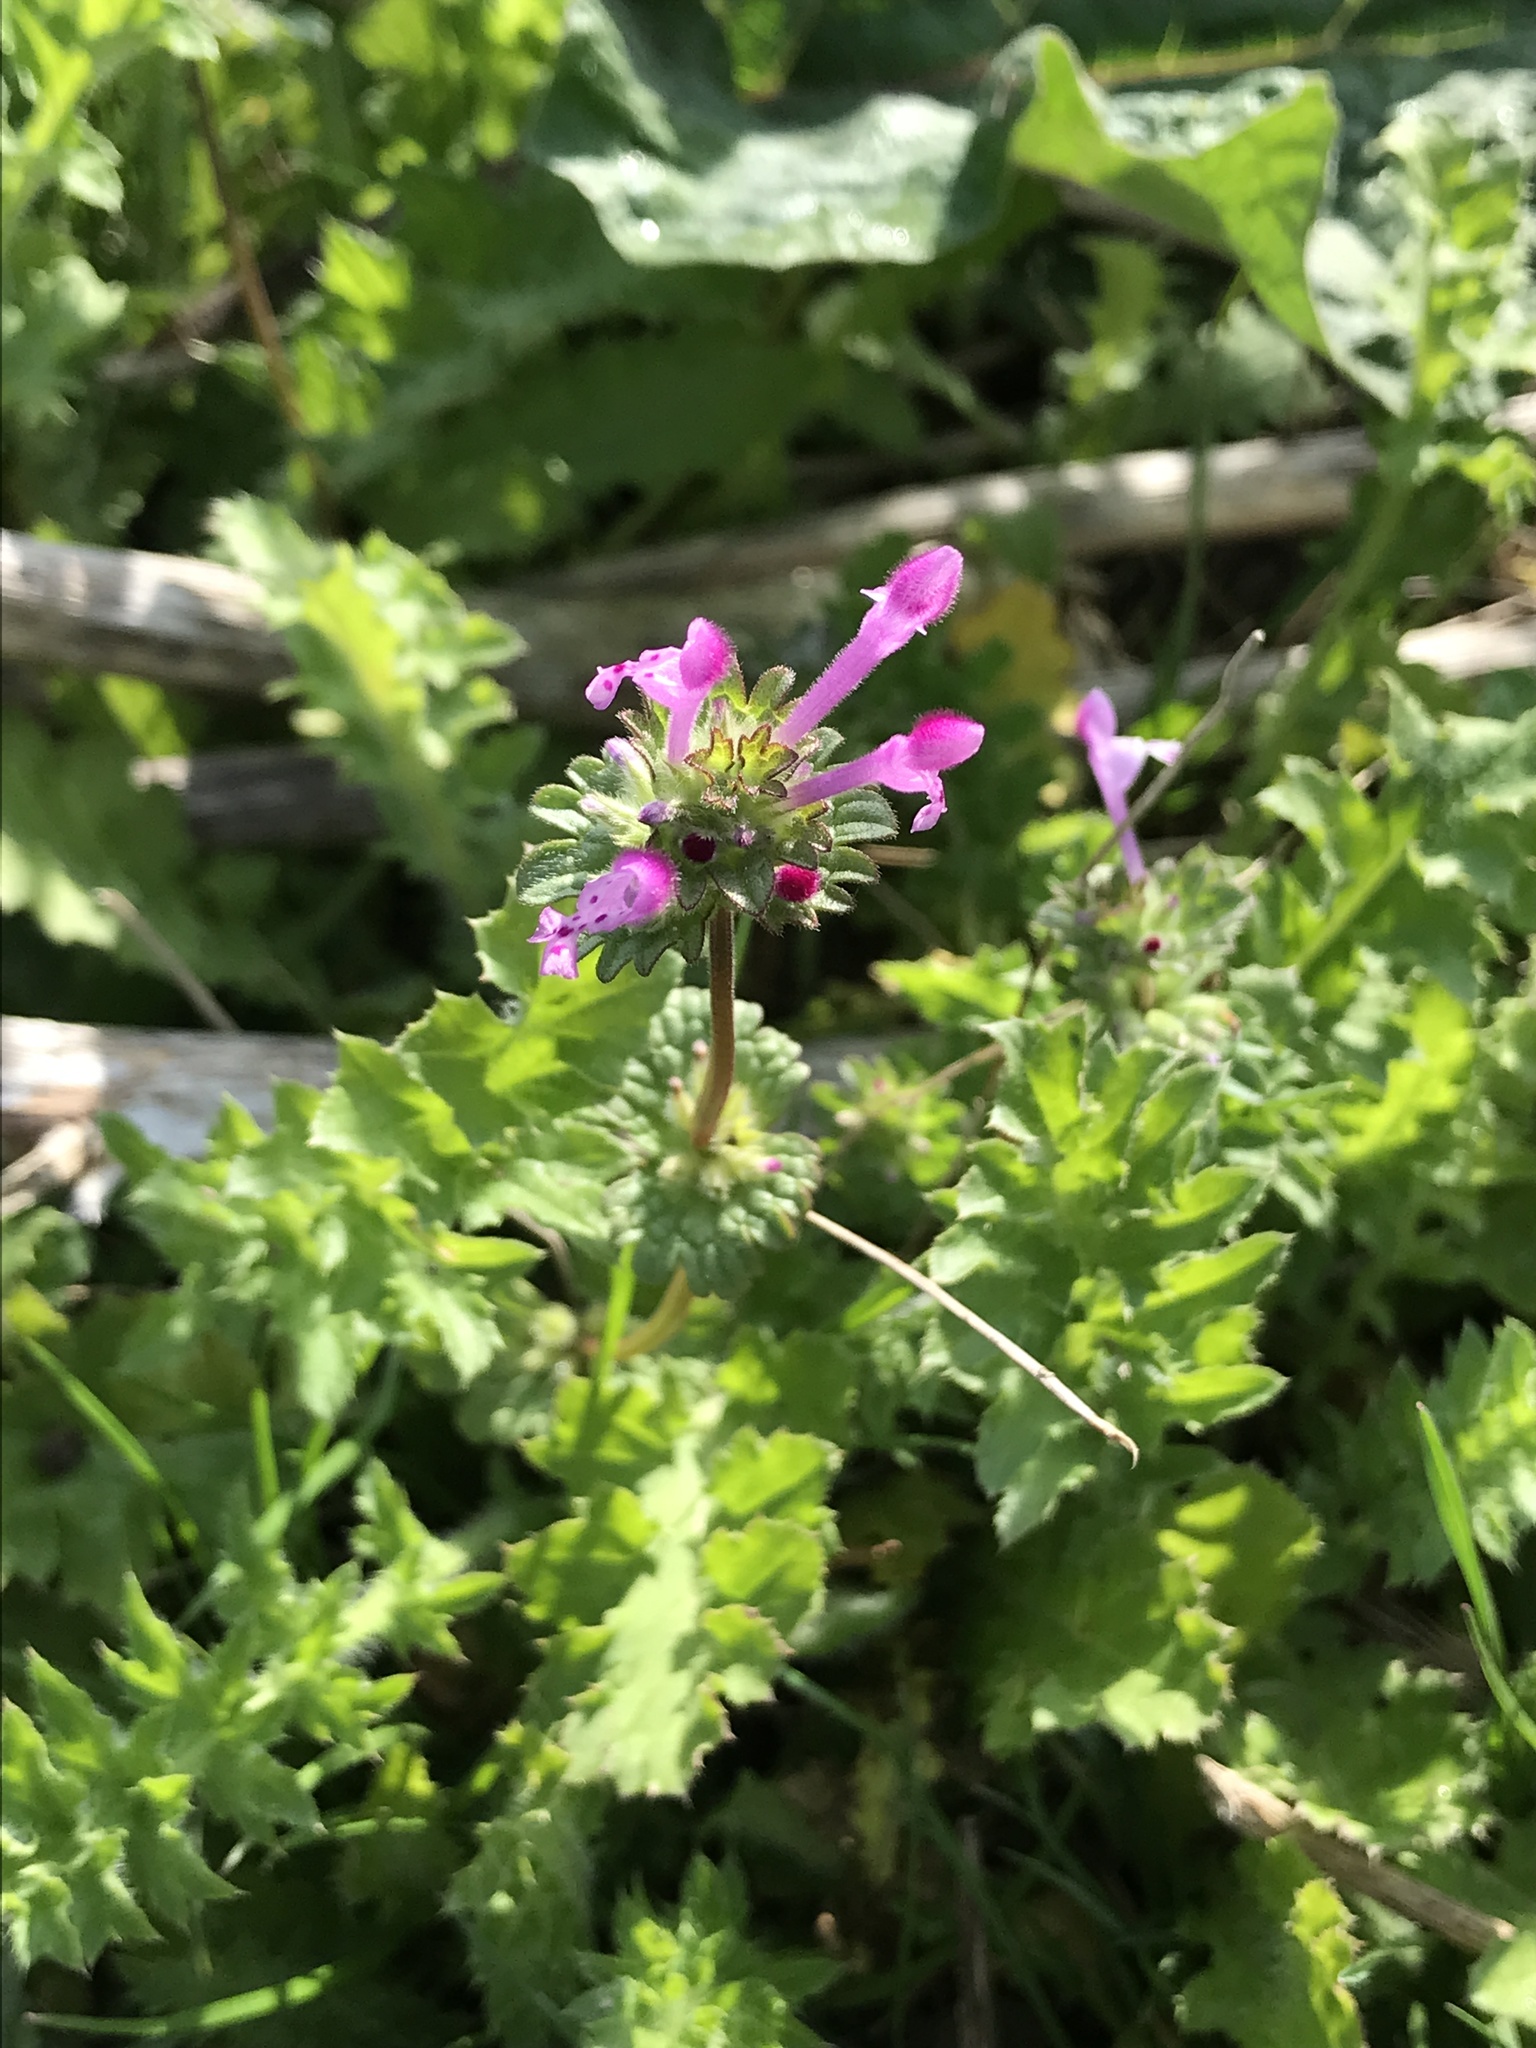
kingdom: Plantae
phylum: Tracheophyta
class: Magnoliopsida
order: Lamiales
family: Lamiaceae
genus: Lamium
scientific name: Lamium amplexicaule
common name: Henbit dead-nettle
